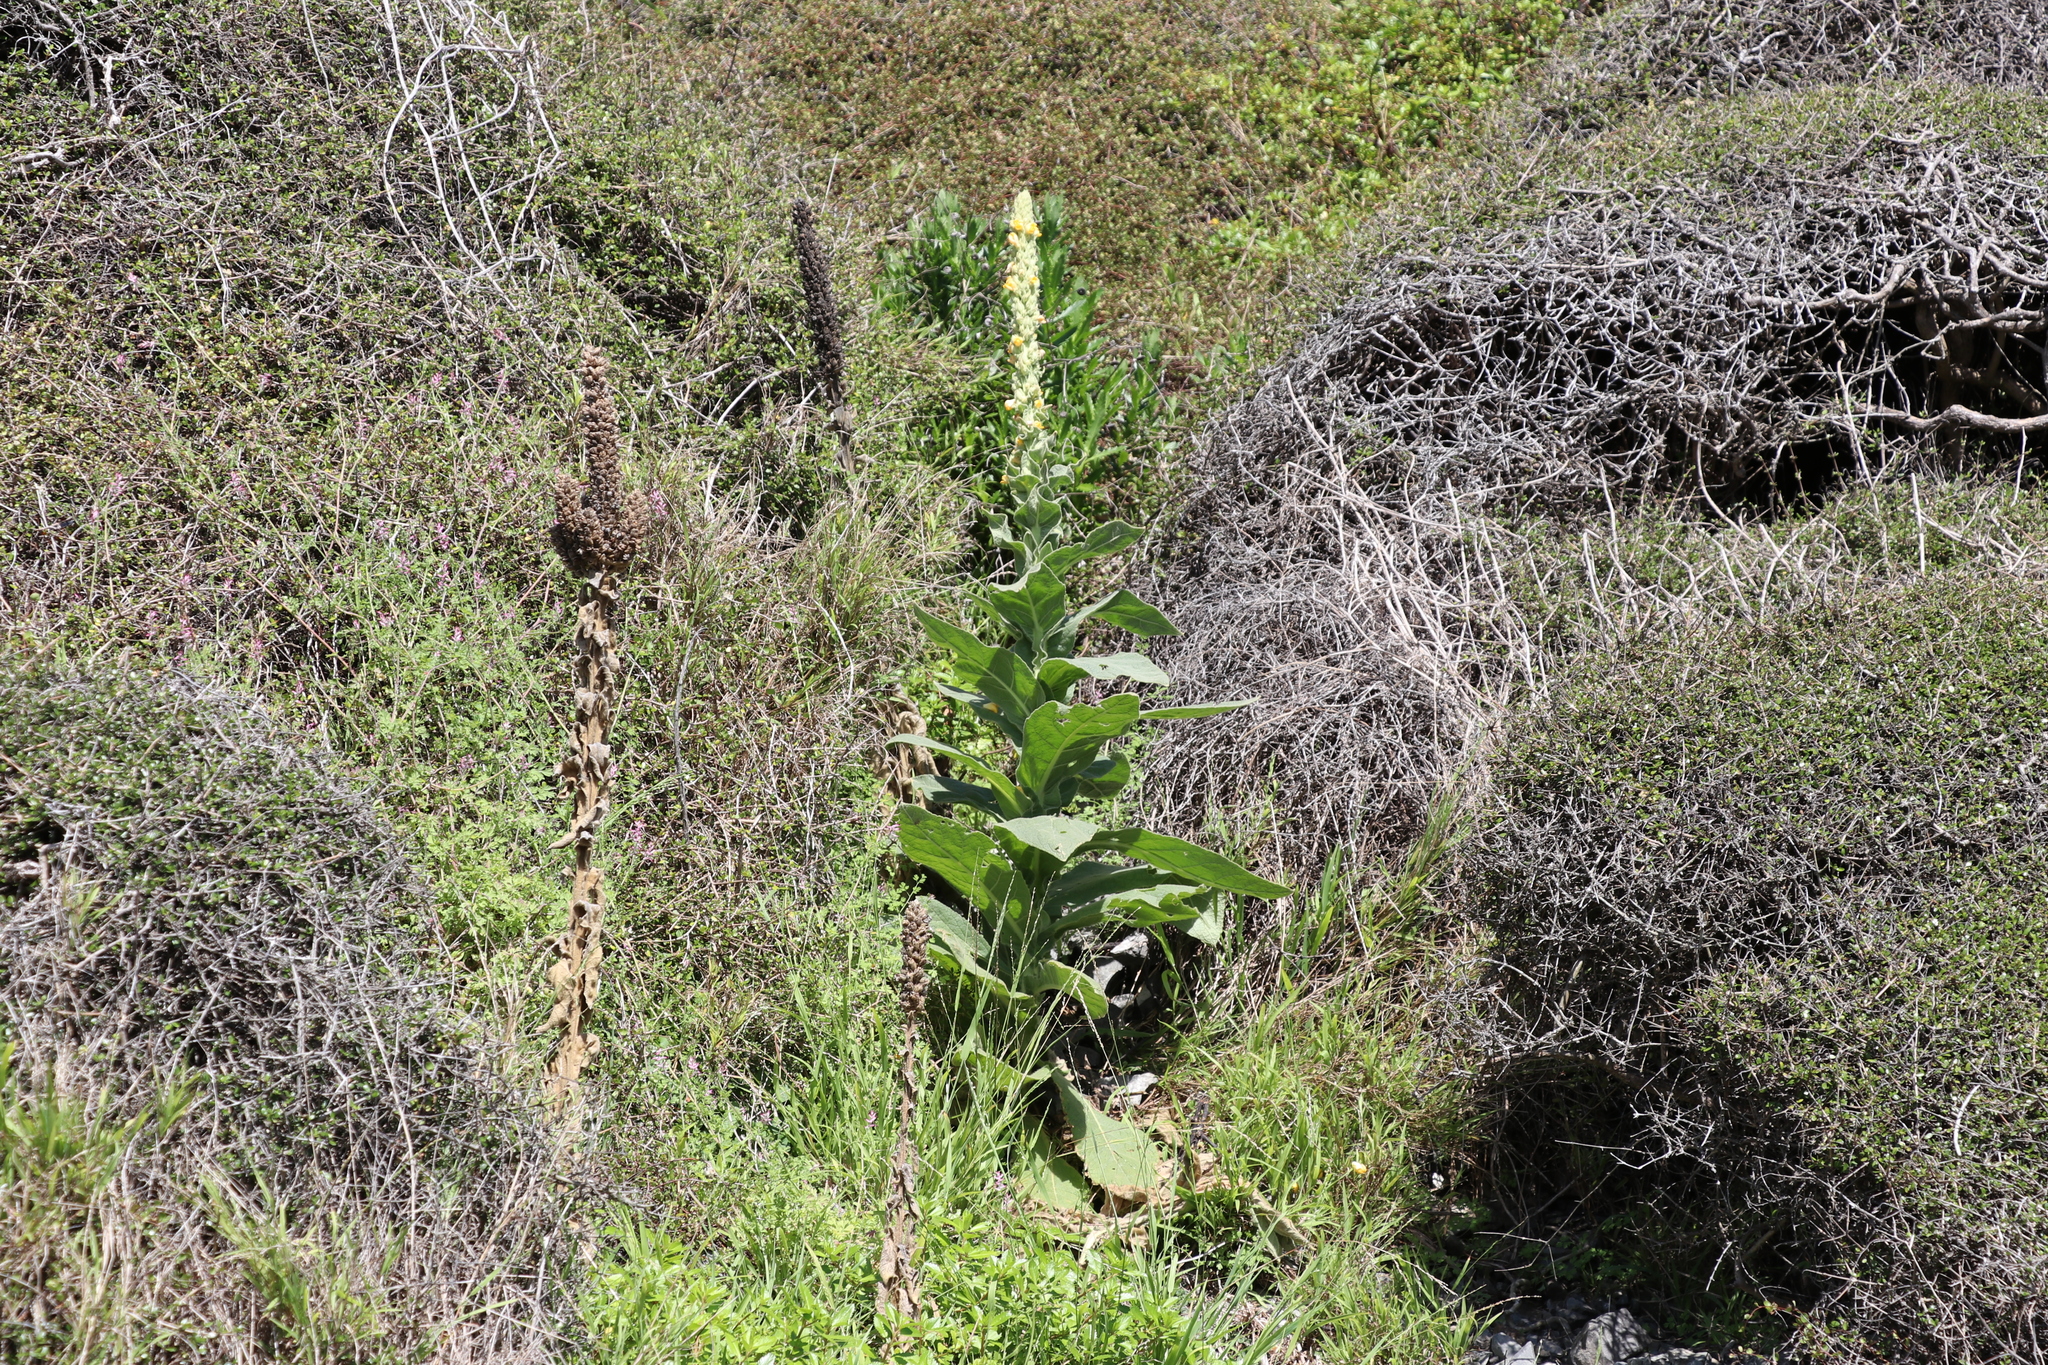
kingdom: Plantae
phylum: Tracheophyta
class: Magnoliopsida
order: Lamiales
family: Scrophulariaceae
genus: Verbascum
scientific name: Verbascum thapsus
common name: Common mullein
